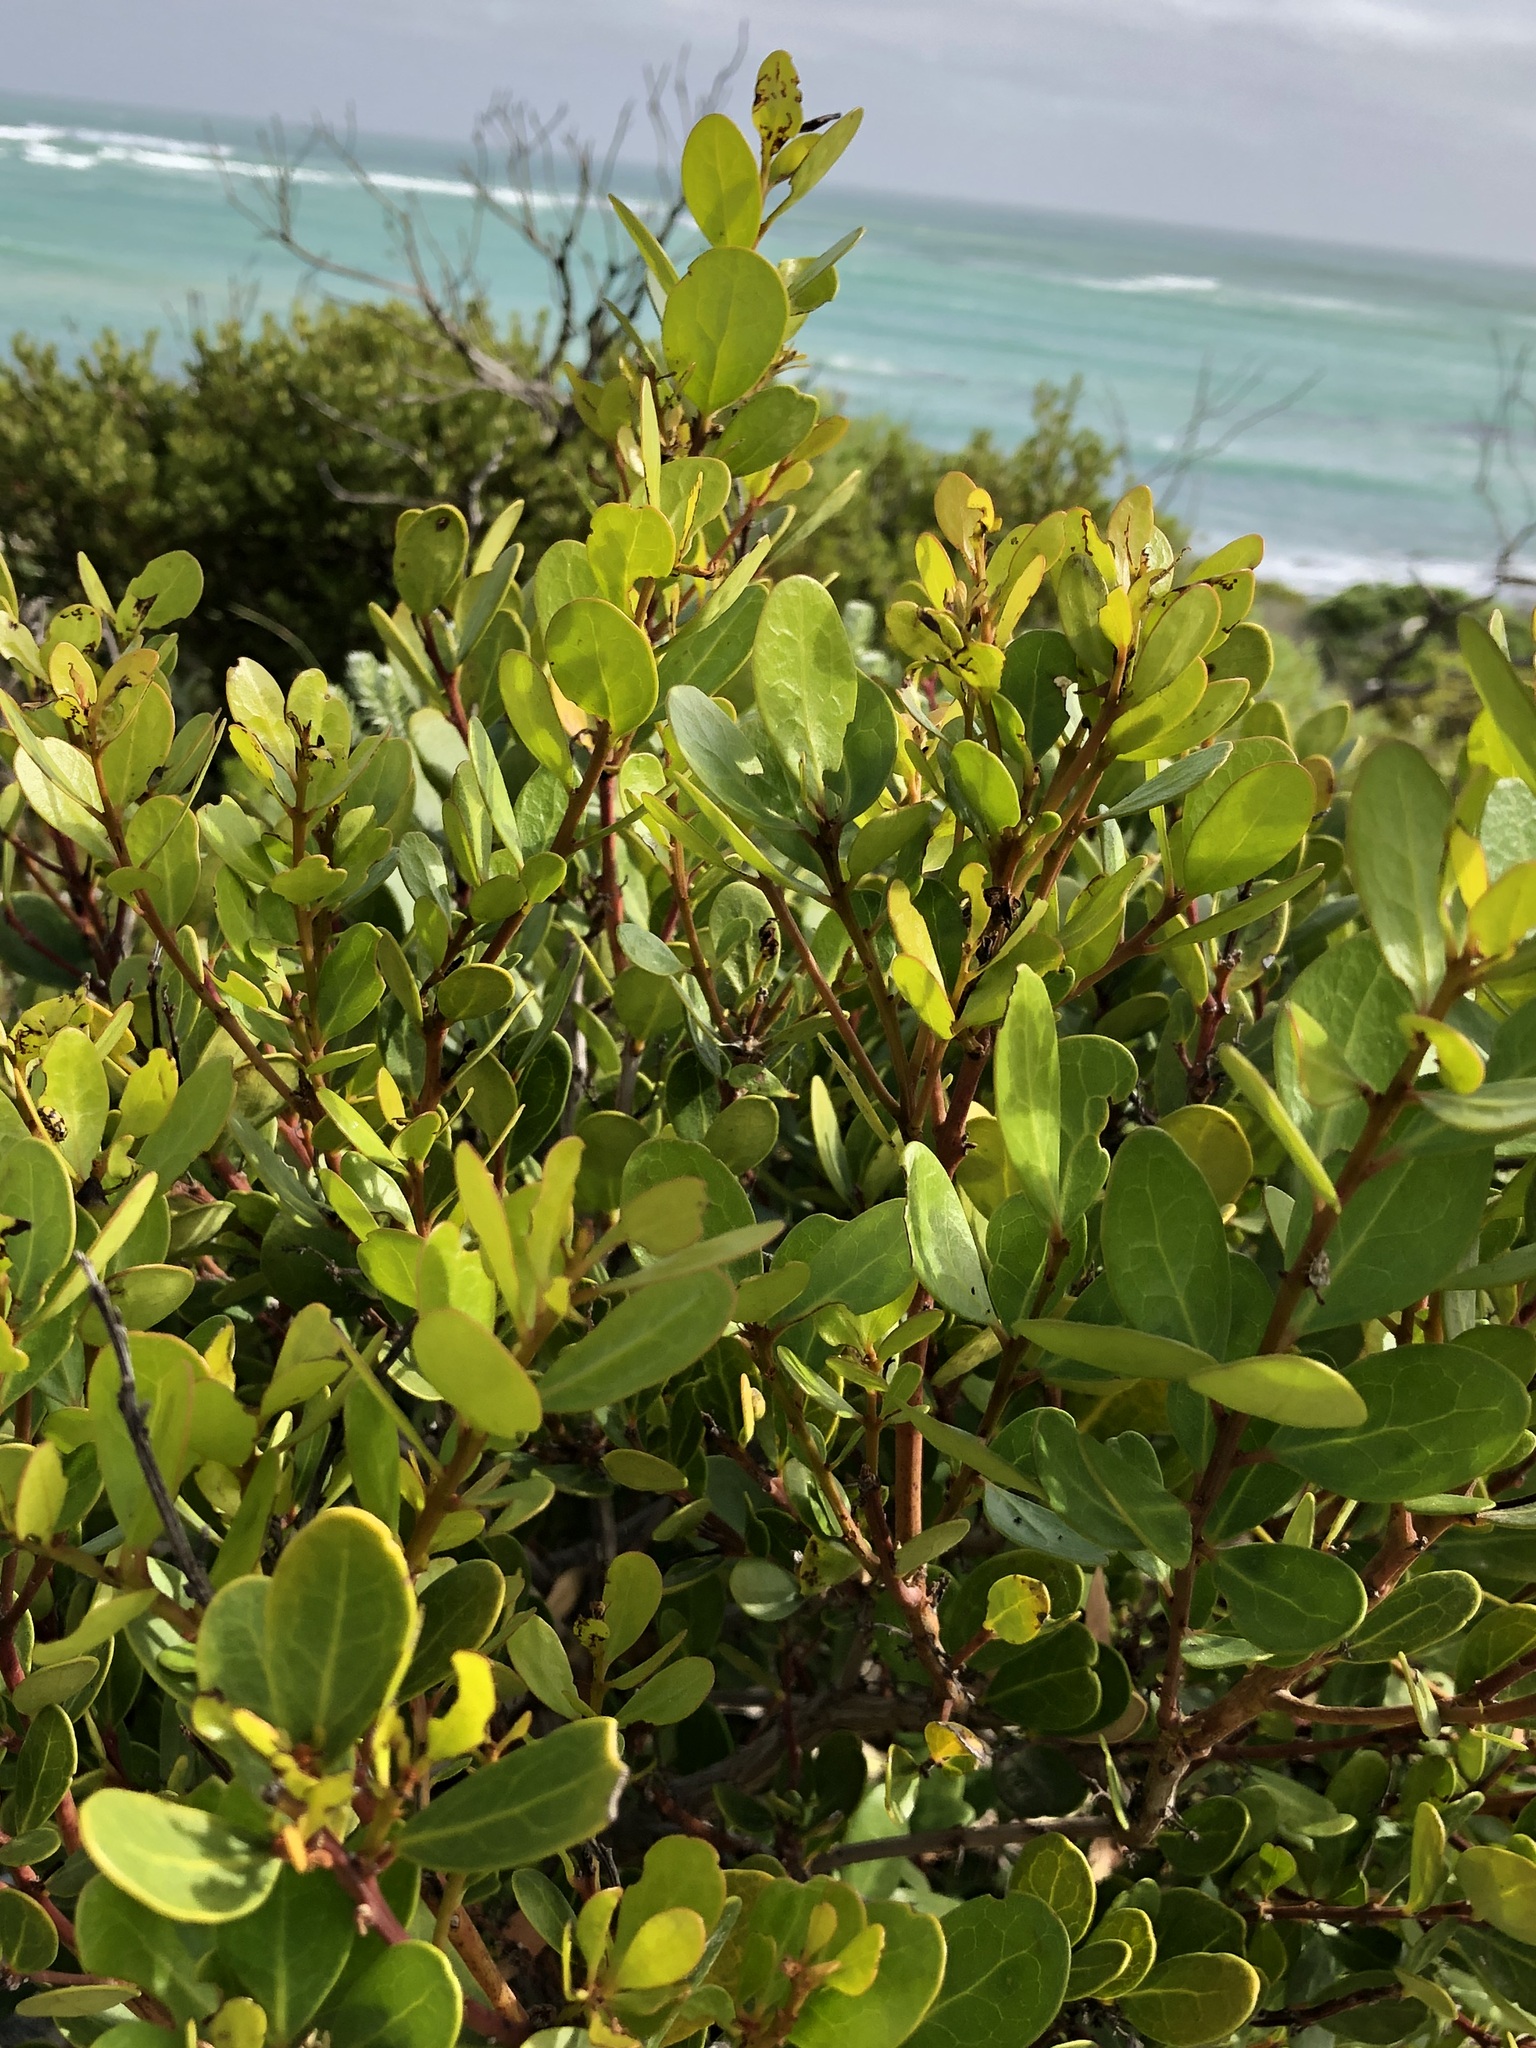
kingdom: Plantae
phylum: Tracheophyta
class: Magnoliopsida
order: Ericales
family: Ebenaceae
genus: Euclea
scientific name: Euclea racemosa
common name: Dune guarri
